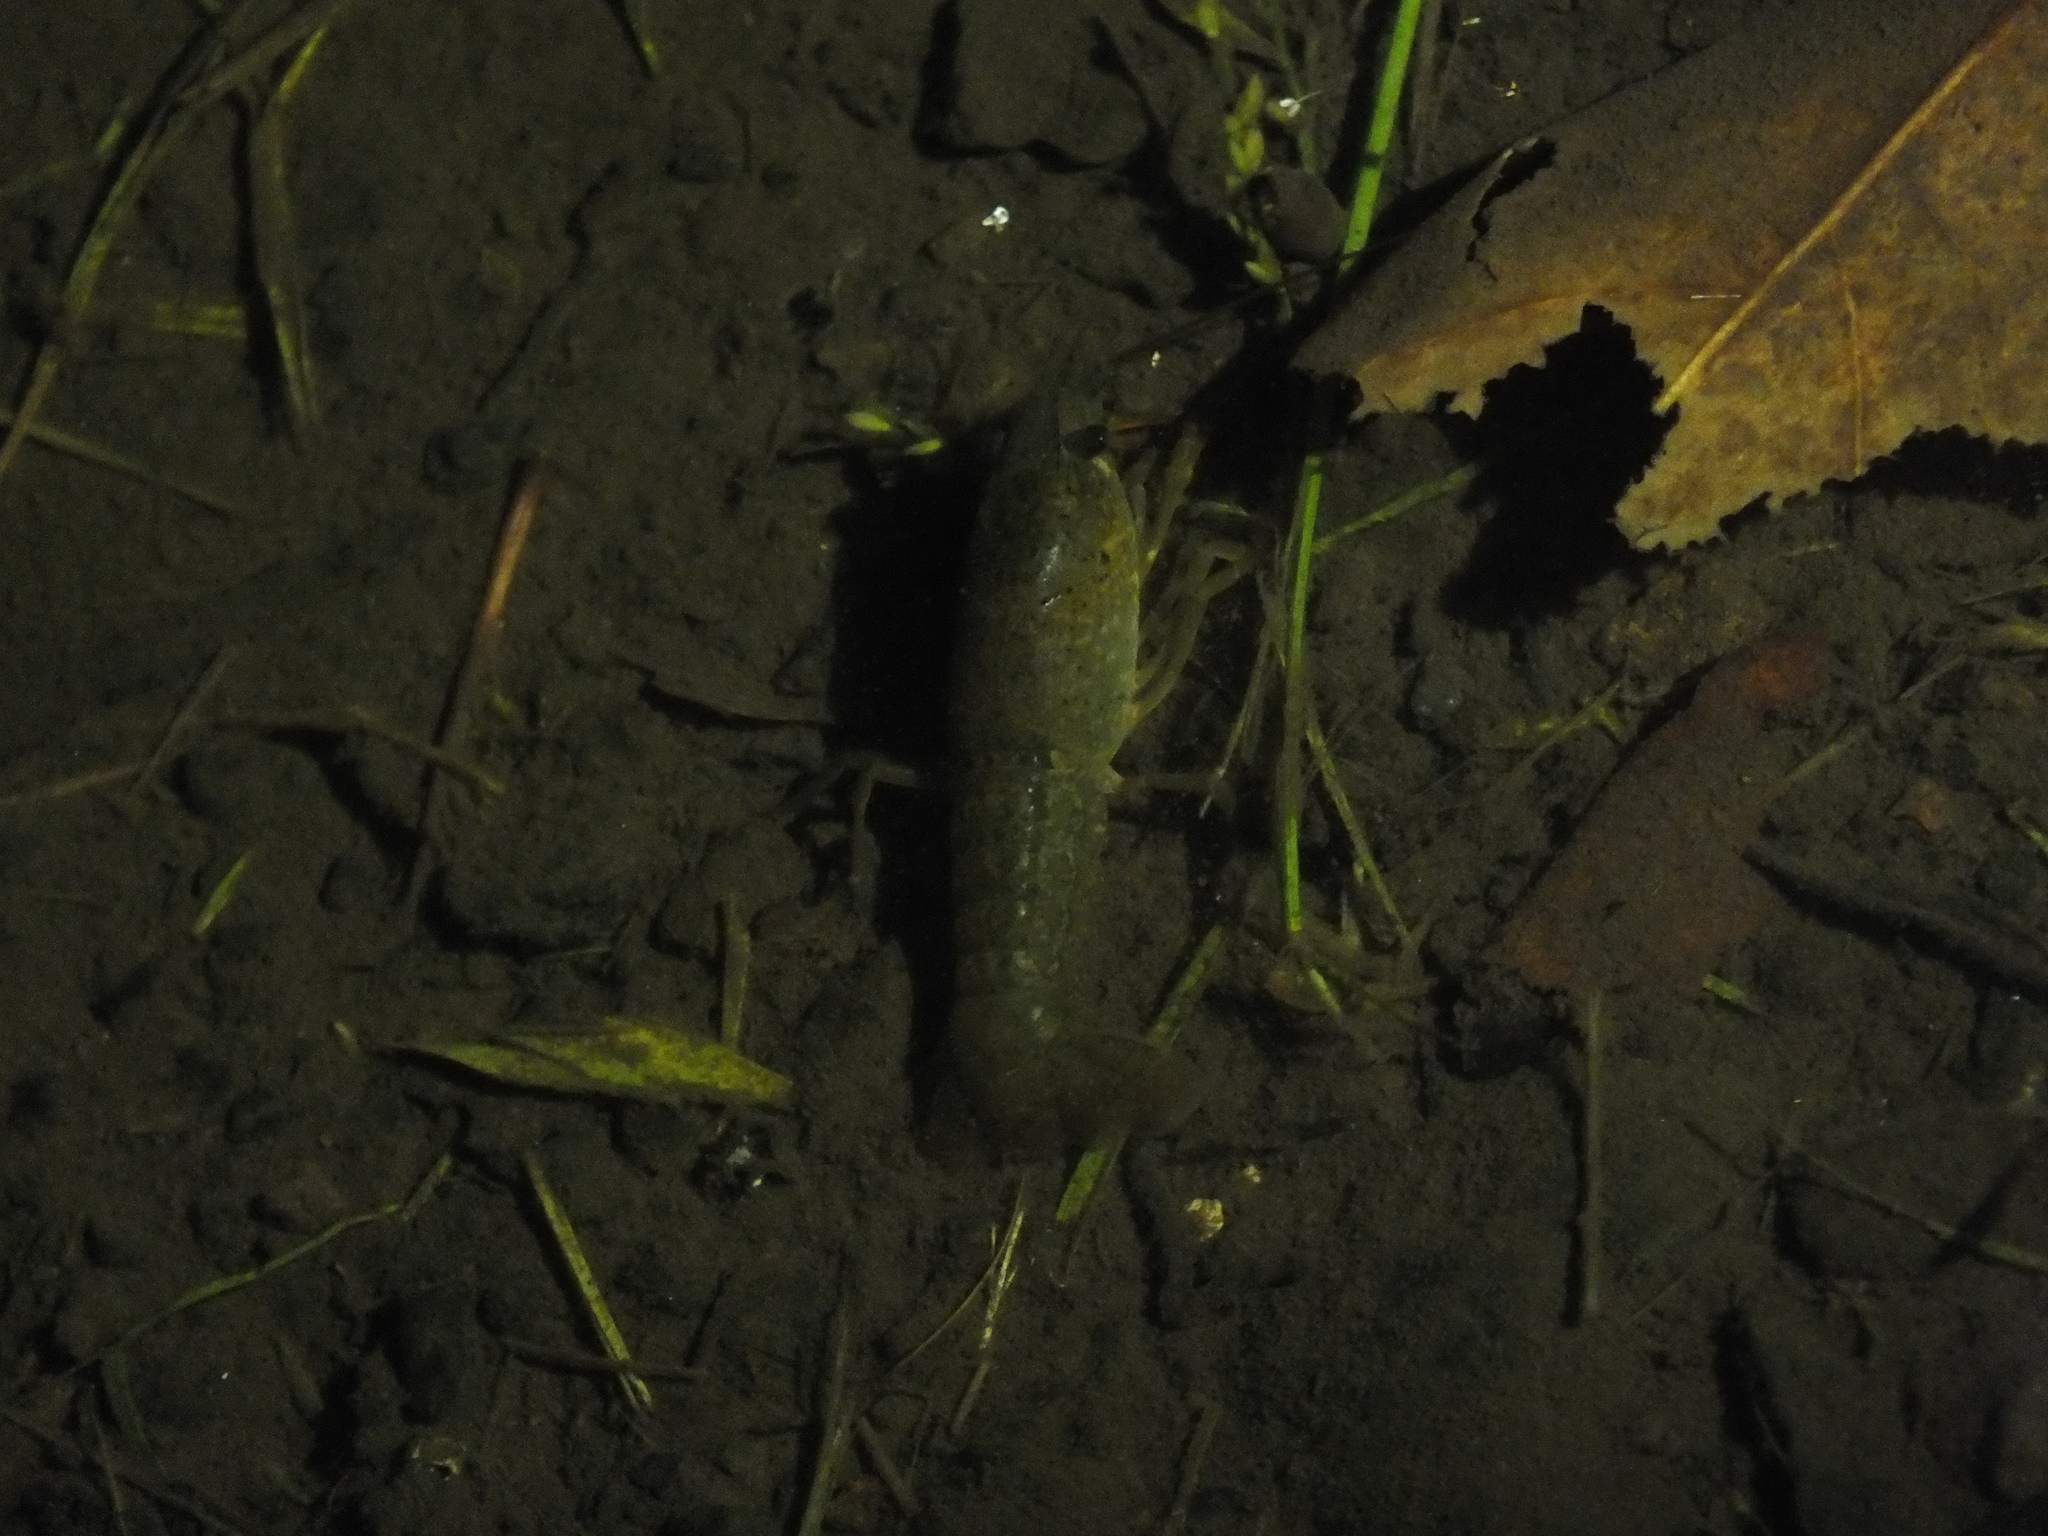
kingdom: Animalia
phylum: Arthropoda
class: Malacostraca
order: Decapoda
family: Cambaridae
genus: Procambarus
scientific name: Procambarus clarkii
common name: Red swamp crayfish
